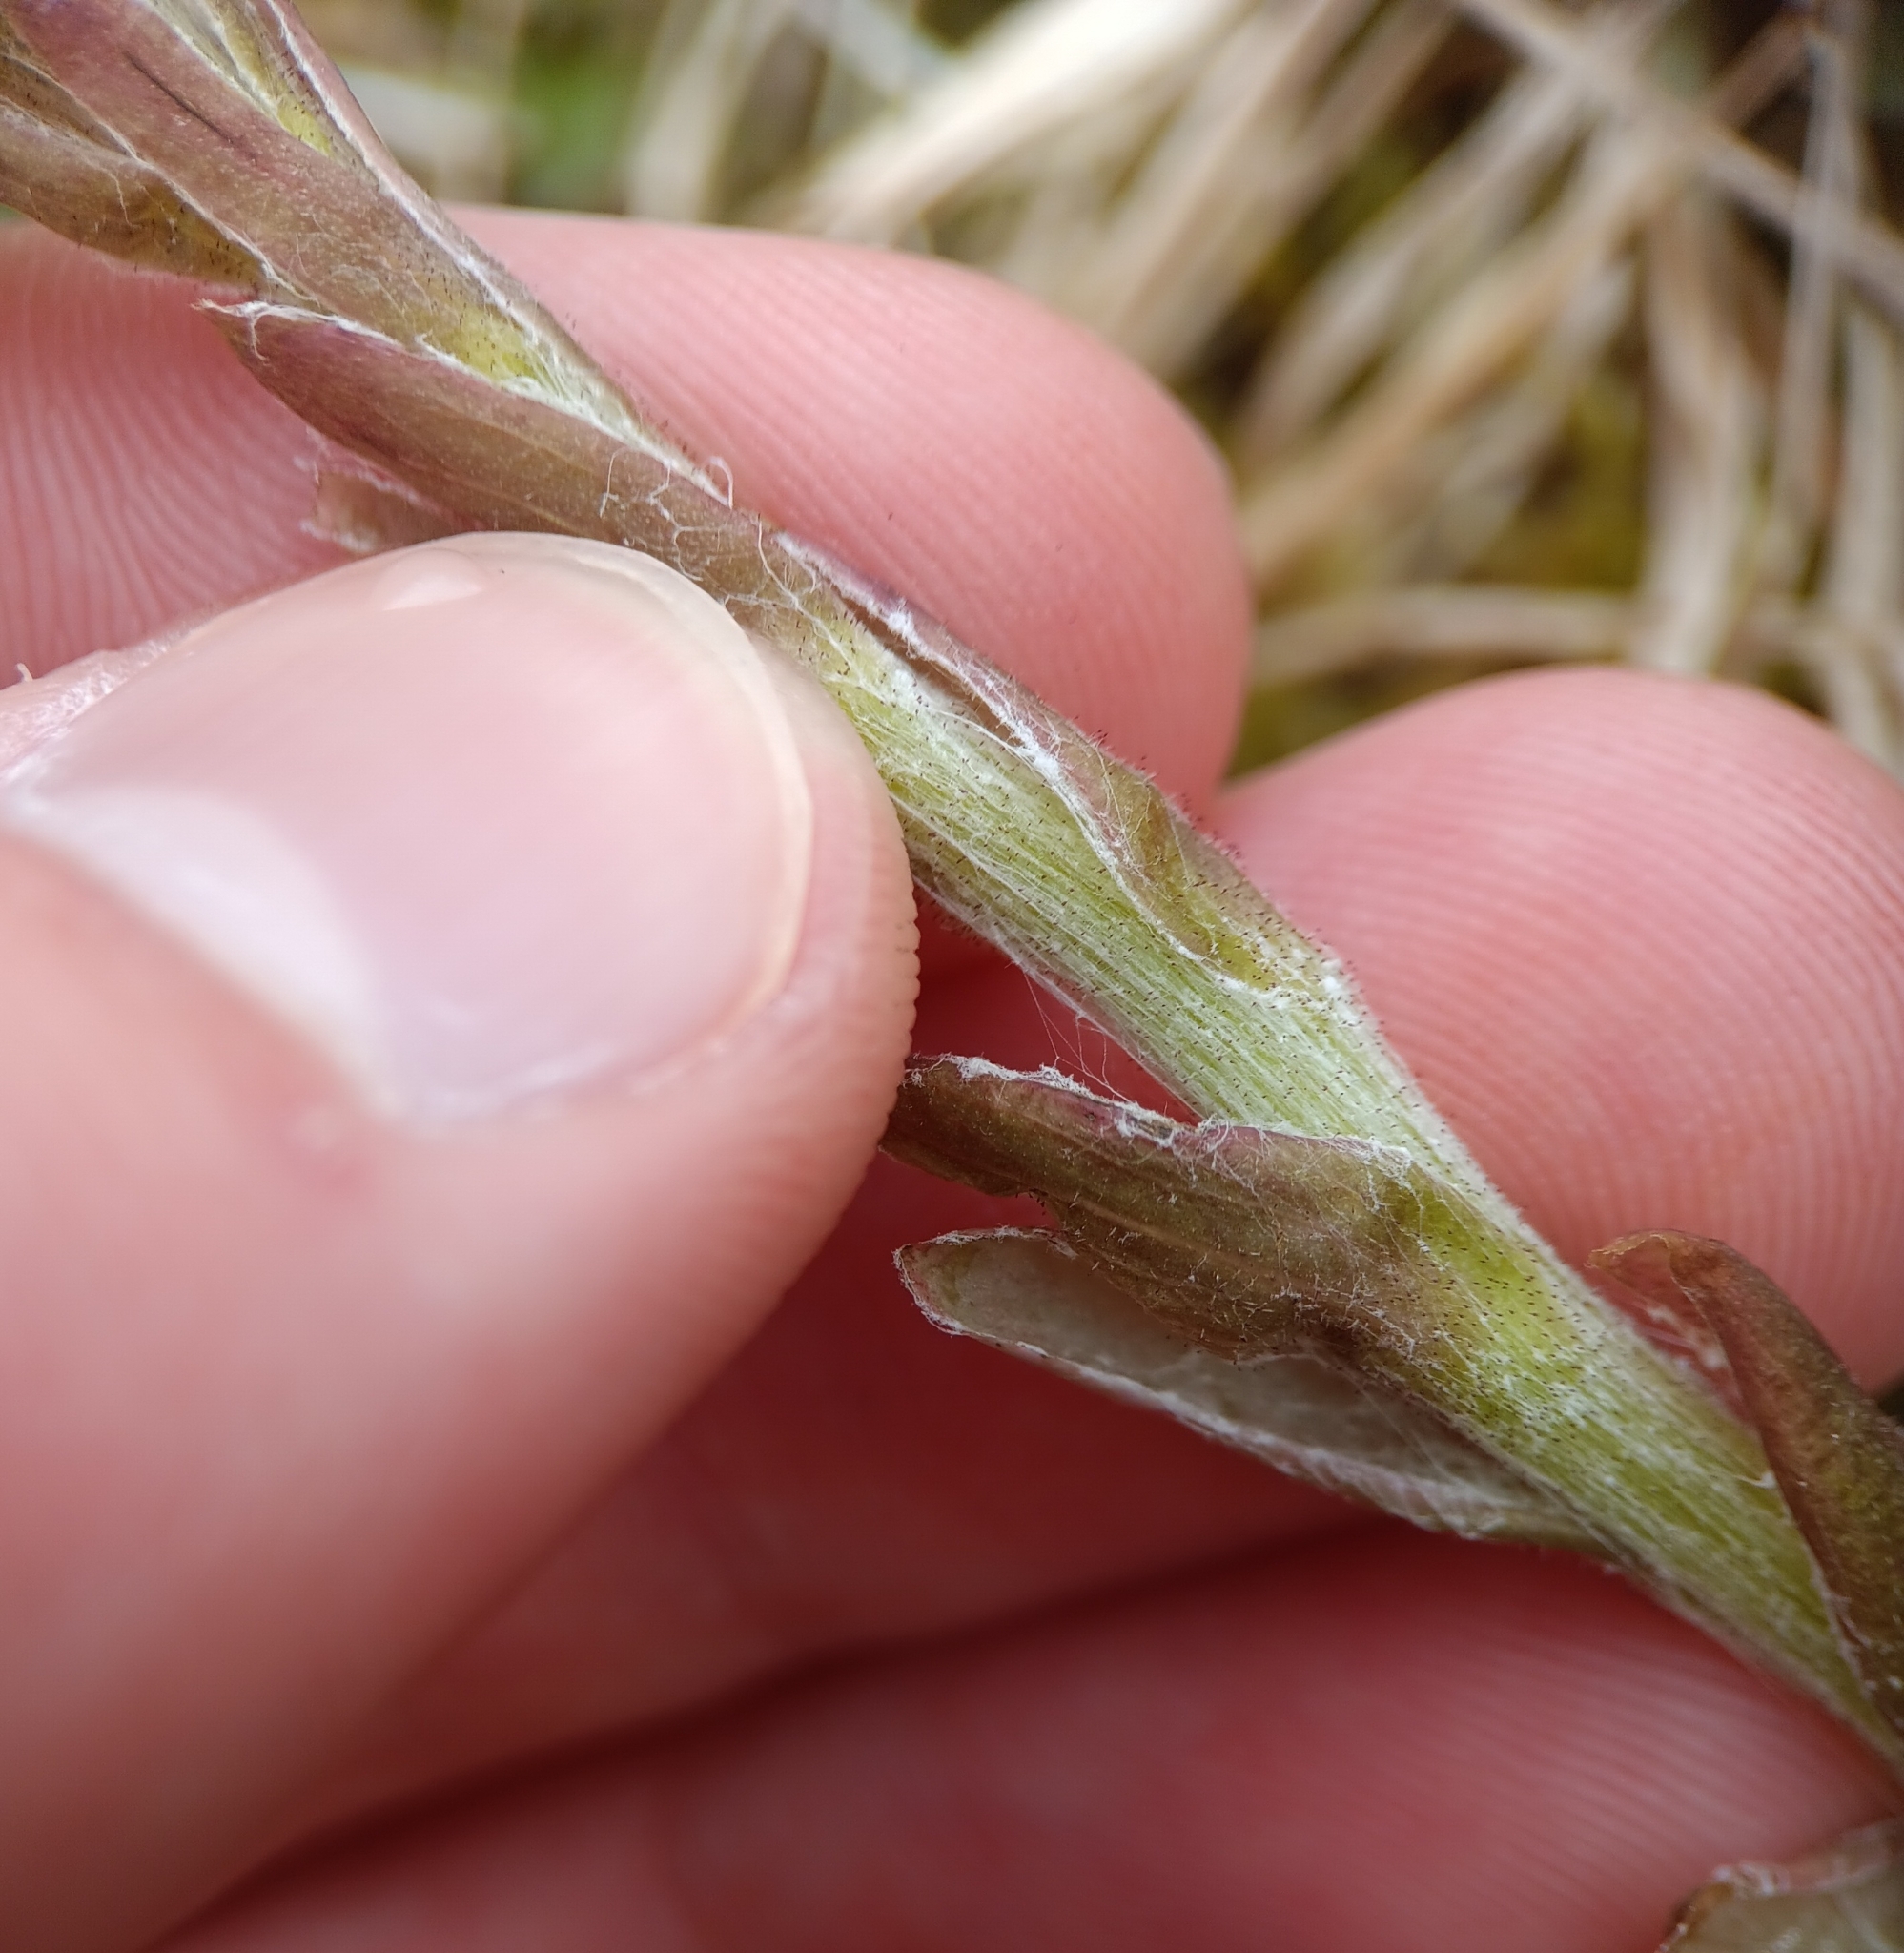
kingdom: Plantae
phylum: Tracheophyta
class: Magnoliopsida
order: Asterales
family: Asteraceae
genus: Tussilago
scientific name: Tussilago farfara
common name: Coltsfoot
